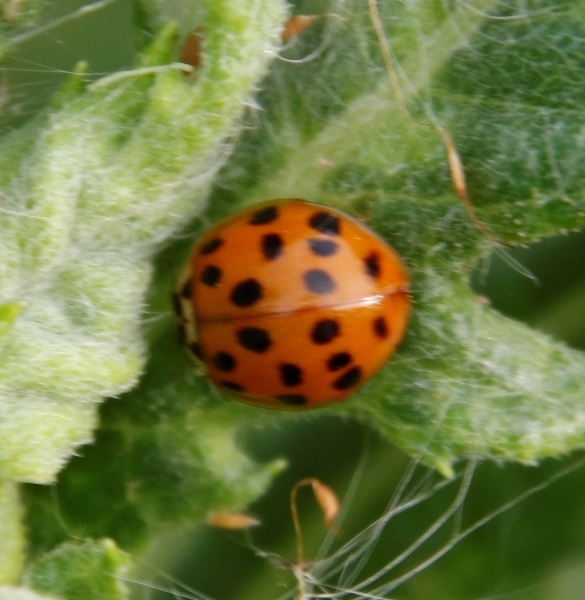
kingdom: Animalia
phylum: Arthropoda
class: Insecta
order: Coleoptera
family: Coccinellidae
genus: Harmonia
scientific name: Harmonia axyridis
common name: Harlequin ladybird
